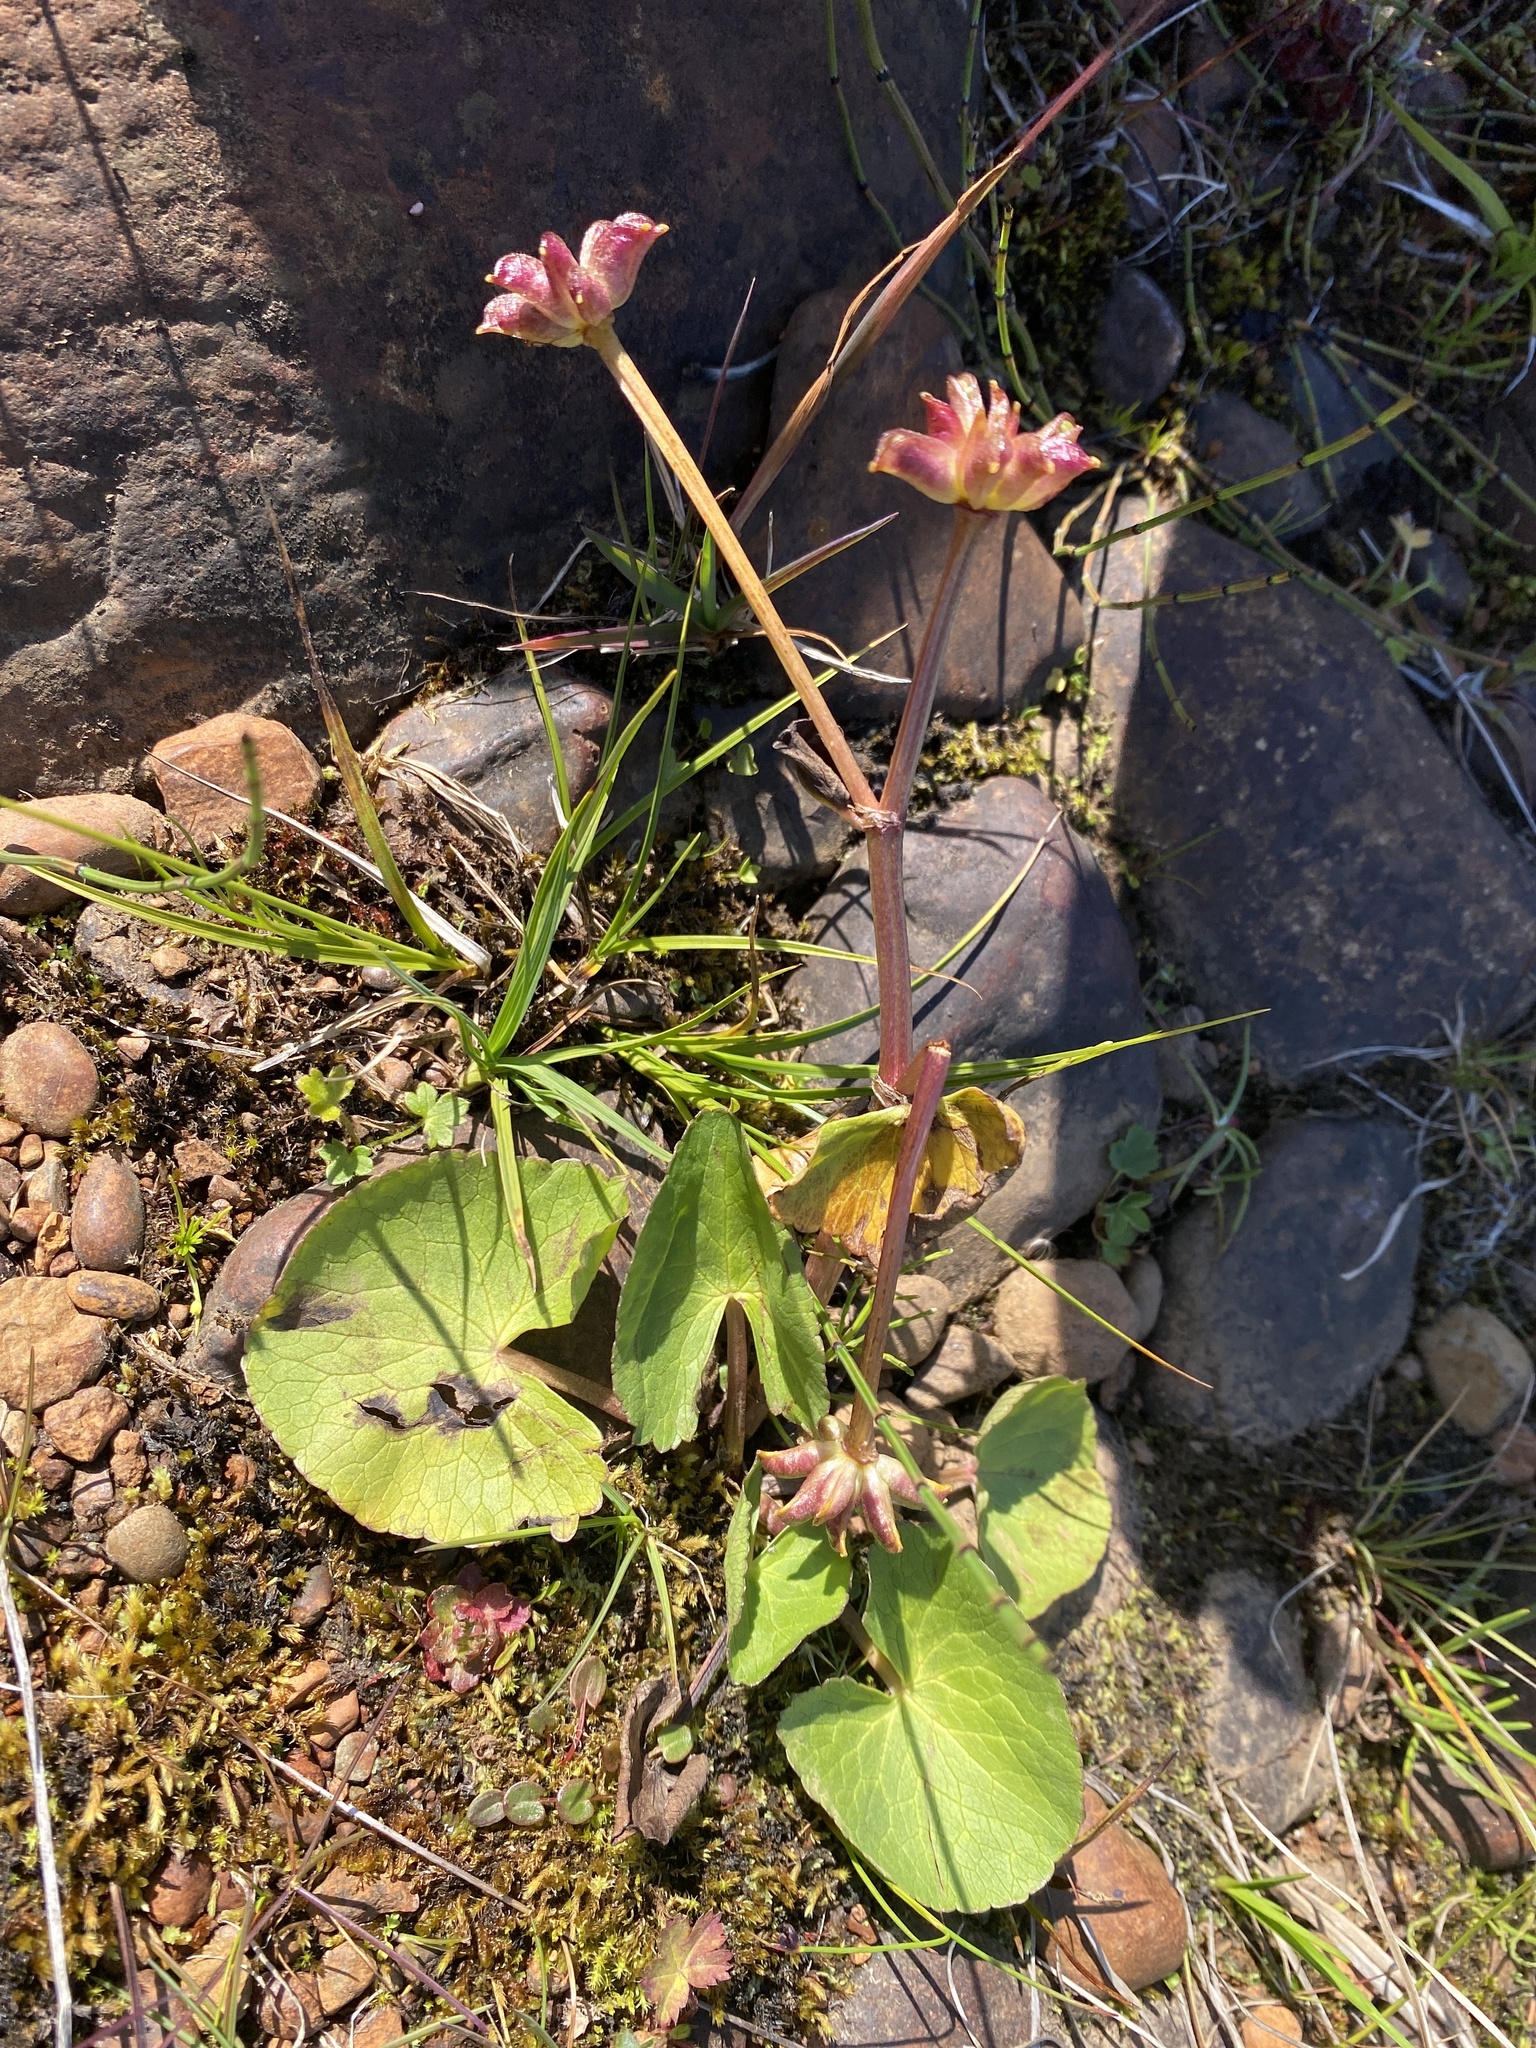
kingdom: Plantae
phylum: Tracheophyta
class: Magnoliopsida
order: Ranunculales
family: Ranunculaceae
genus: Caltha
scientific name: Caltha palustris
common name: Marsh marigold
